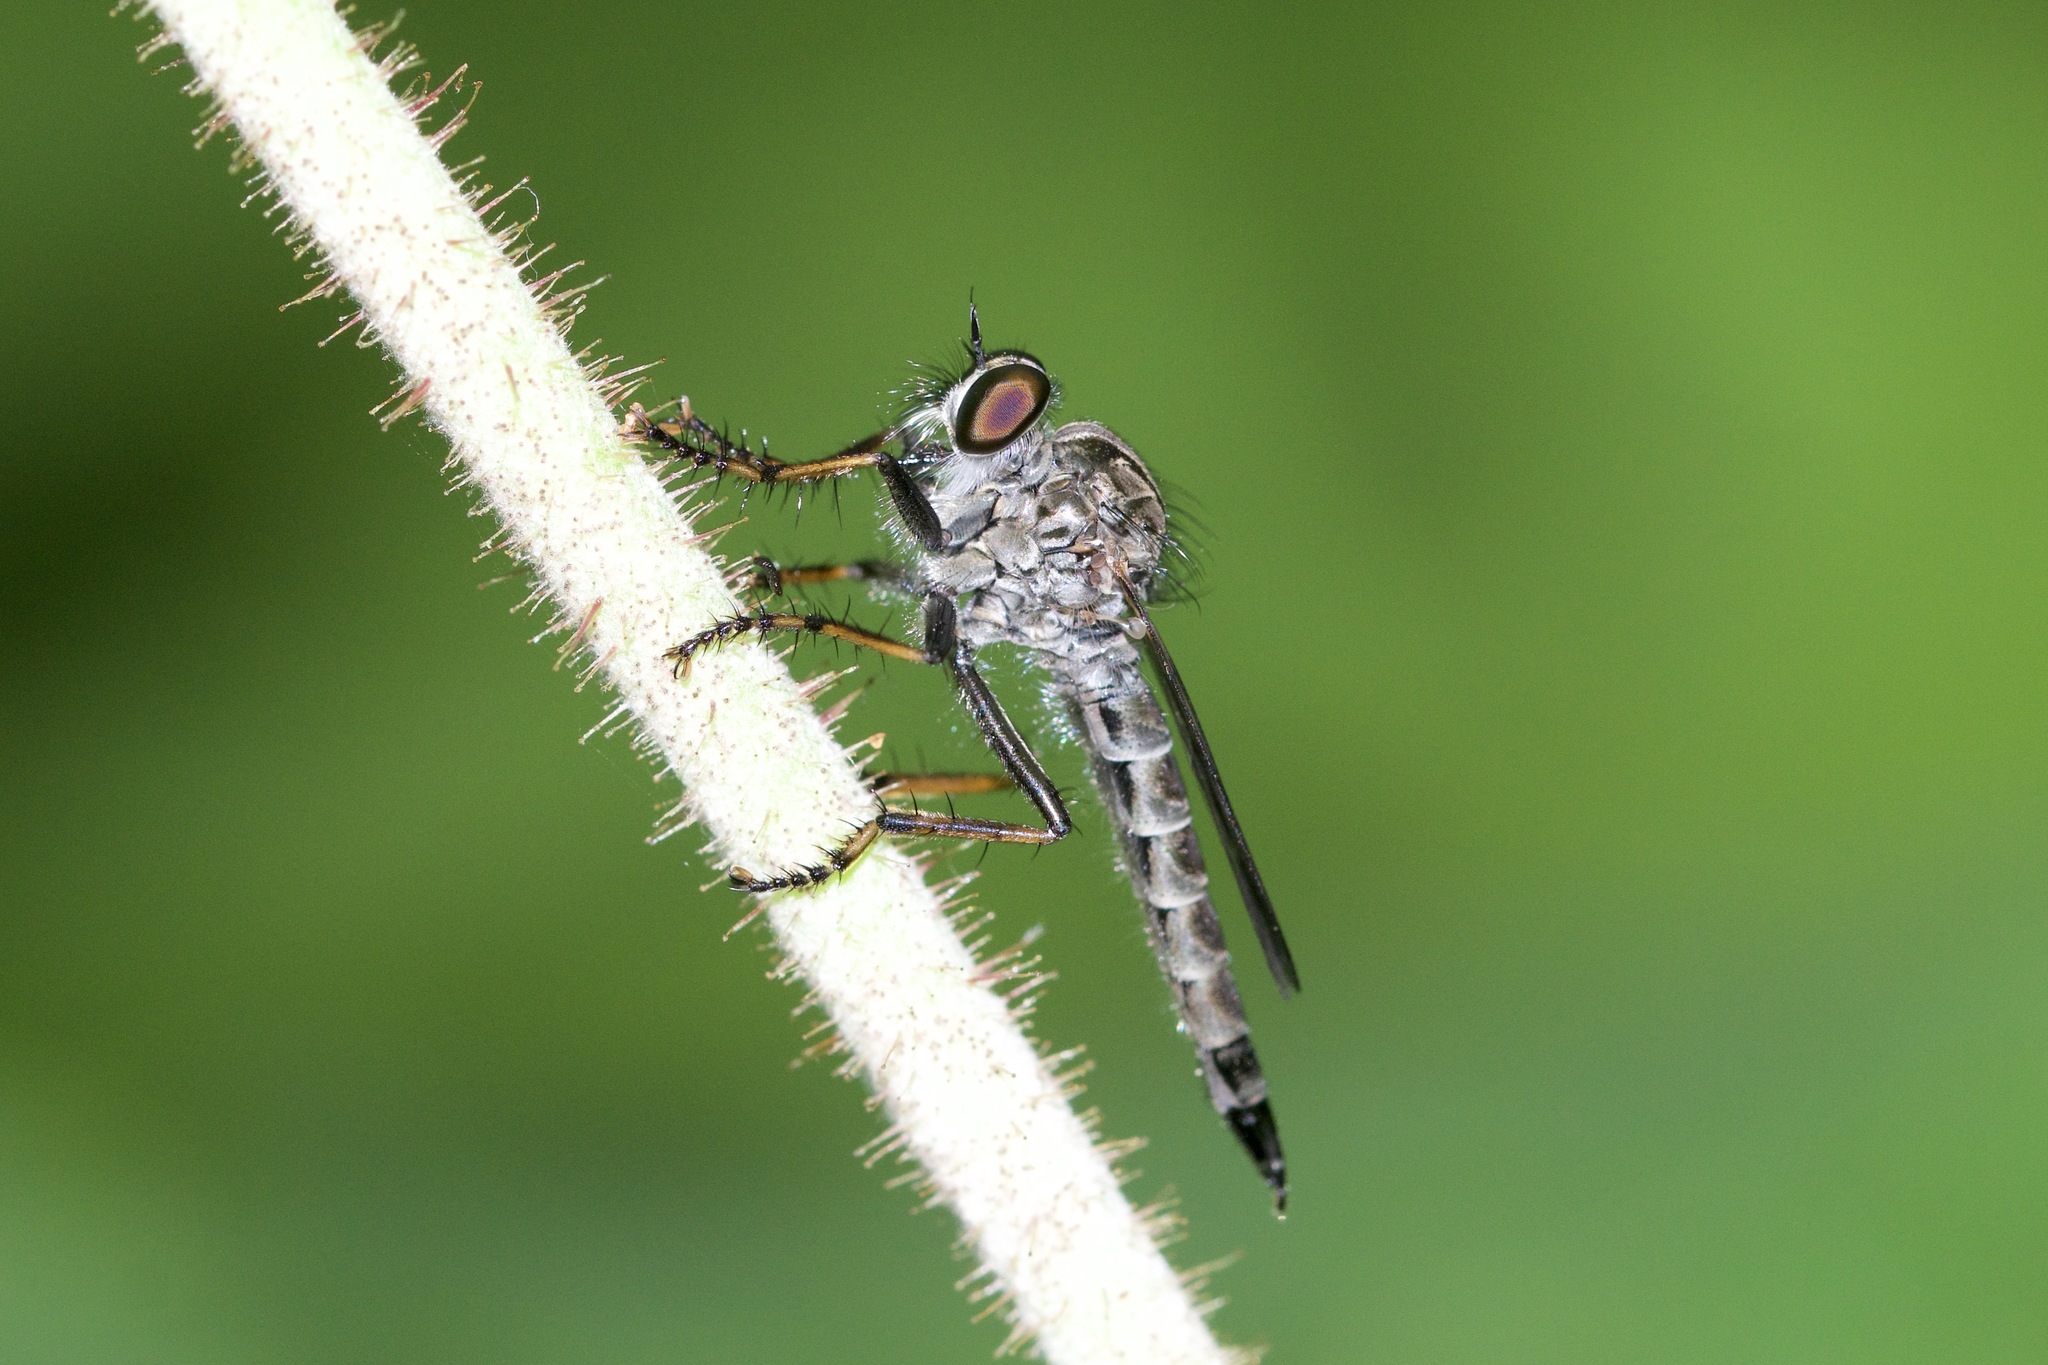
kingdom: Animalia
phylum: Arthropoda
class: Insecta
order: Diptera
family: Asilidae
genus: Machimus
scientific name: Machimus sadyates
